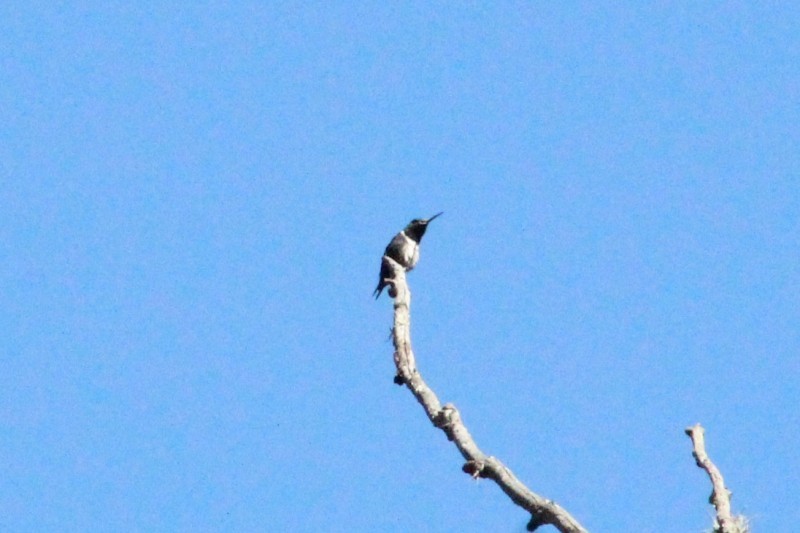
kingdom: Animalia
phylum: Chordata
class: Aves
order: Apodiformes
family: Trochilidae
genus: Chaetocercus
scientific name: Chaetocercus mulsant
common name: White-bellied woodstar
